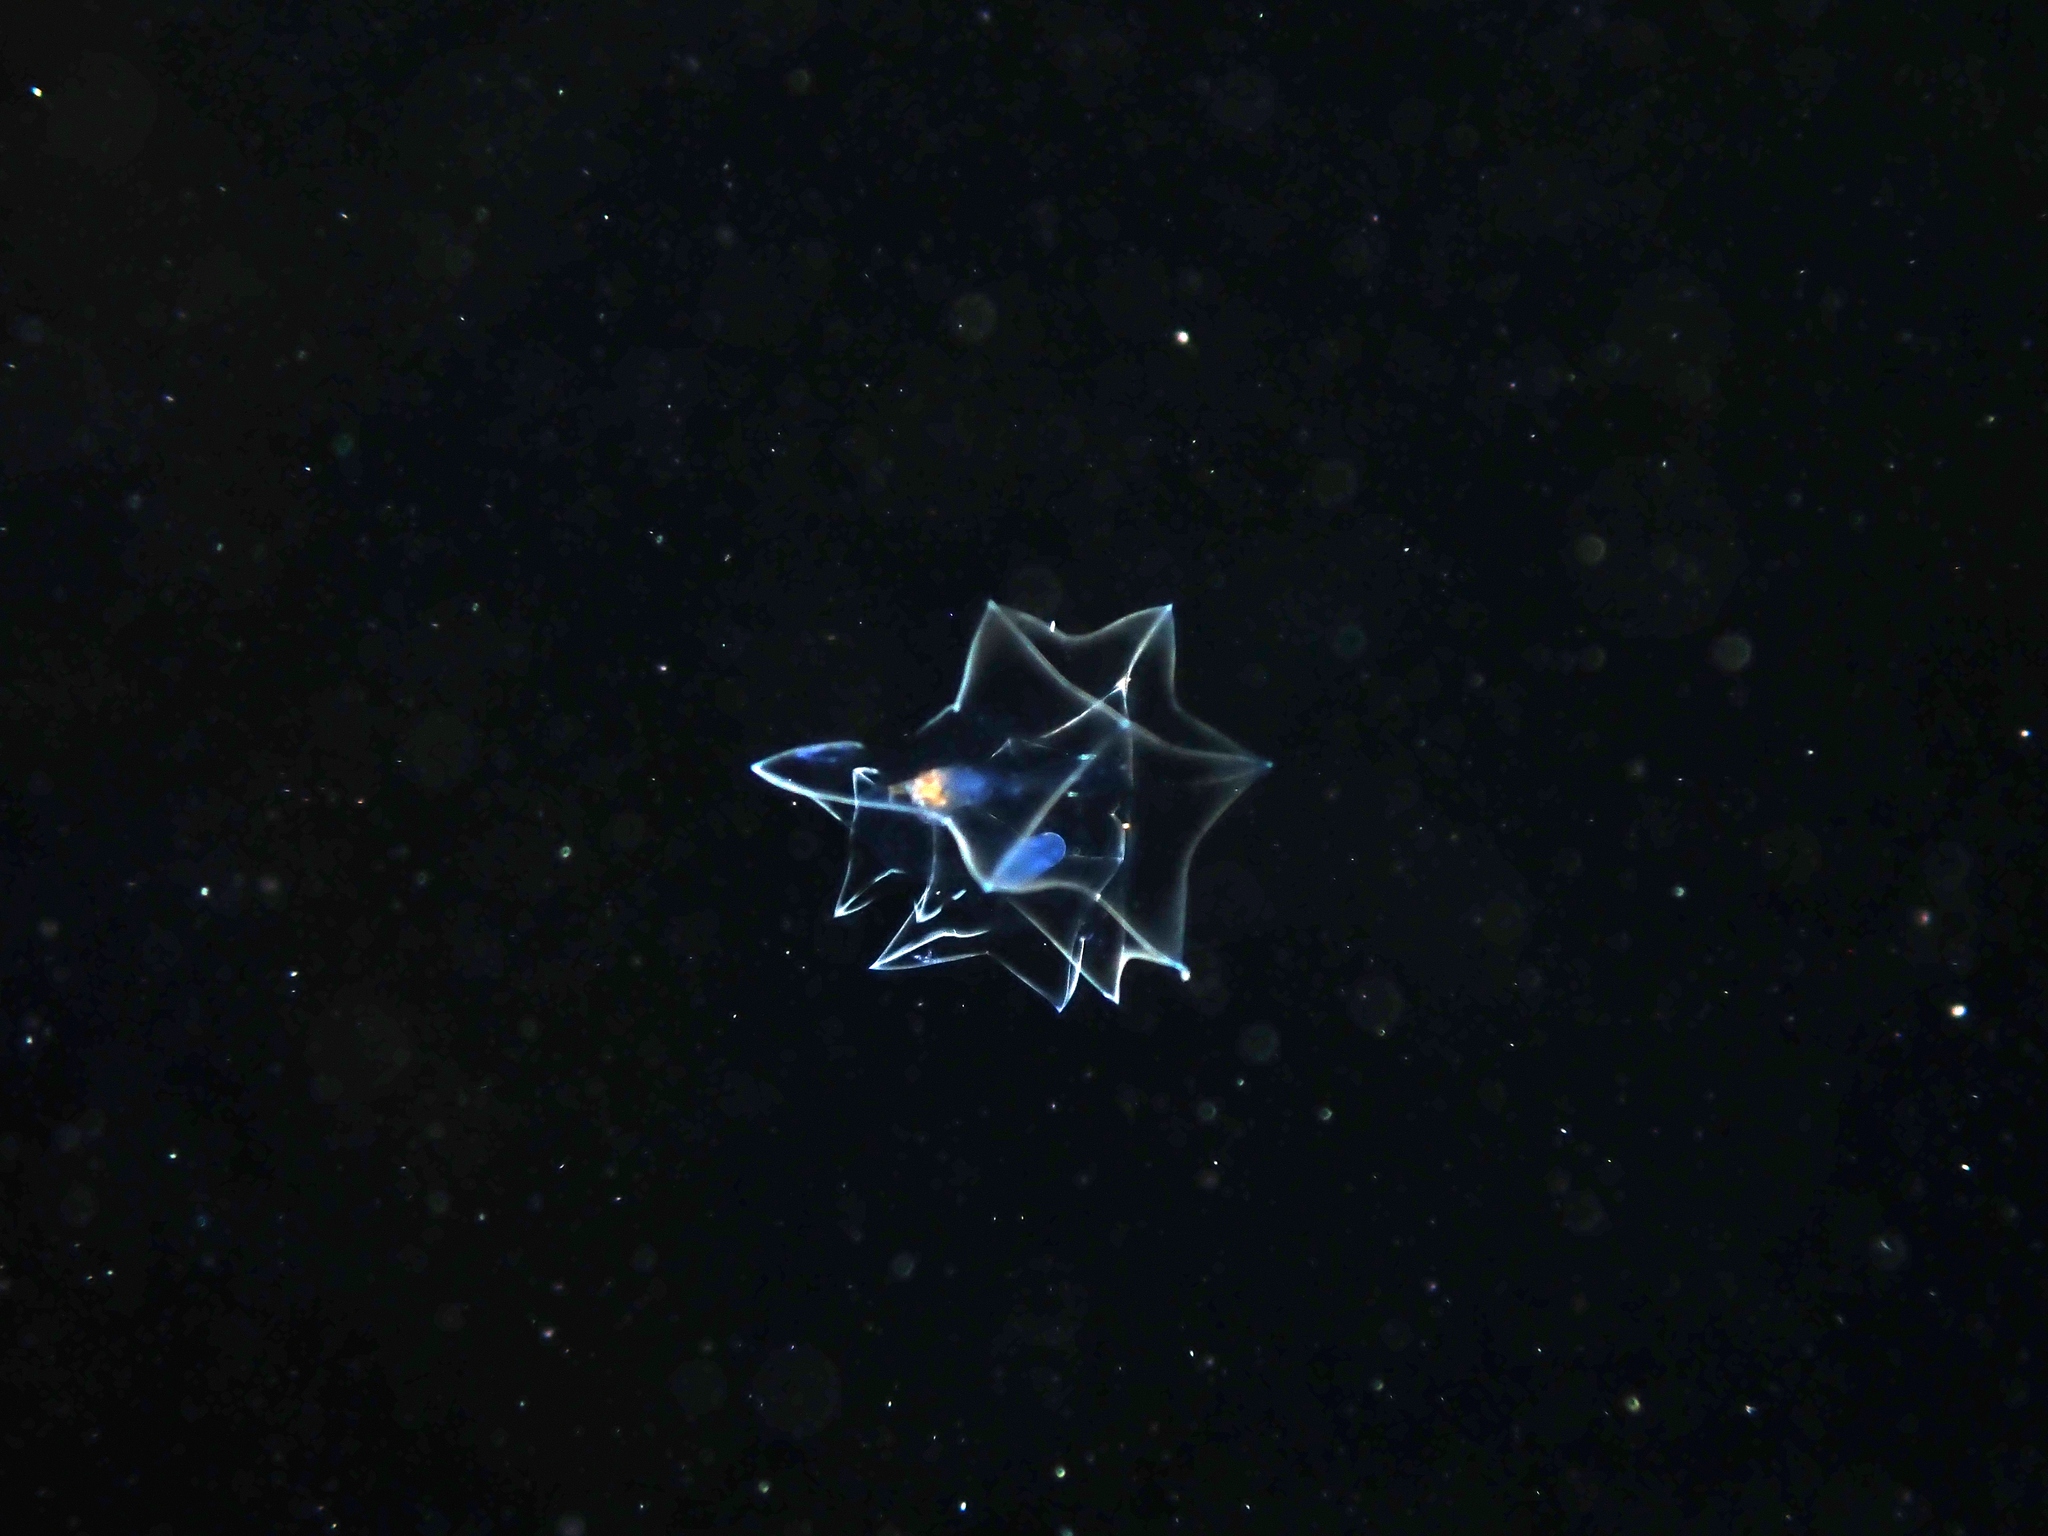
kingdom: Animalia
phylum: Cnidaria
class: Hydrozoa
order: Siphonophorae
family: Abylidae
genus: Bassia
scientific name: Bassia bassensis
